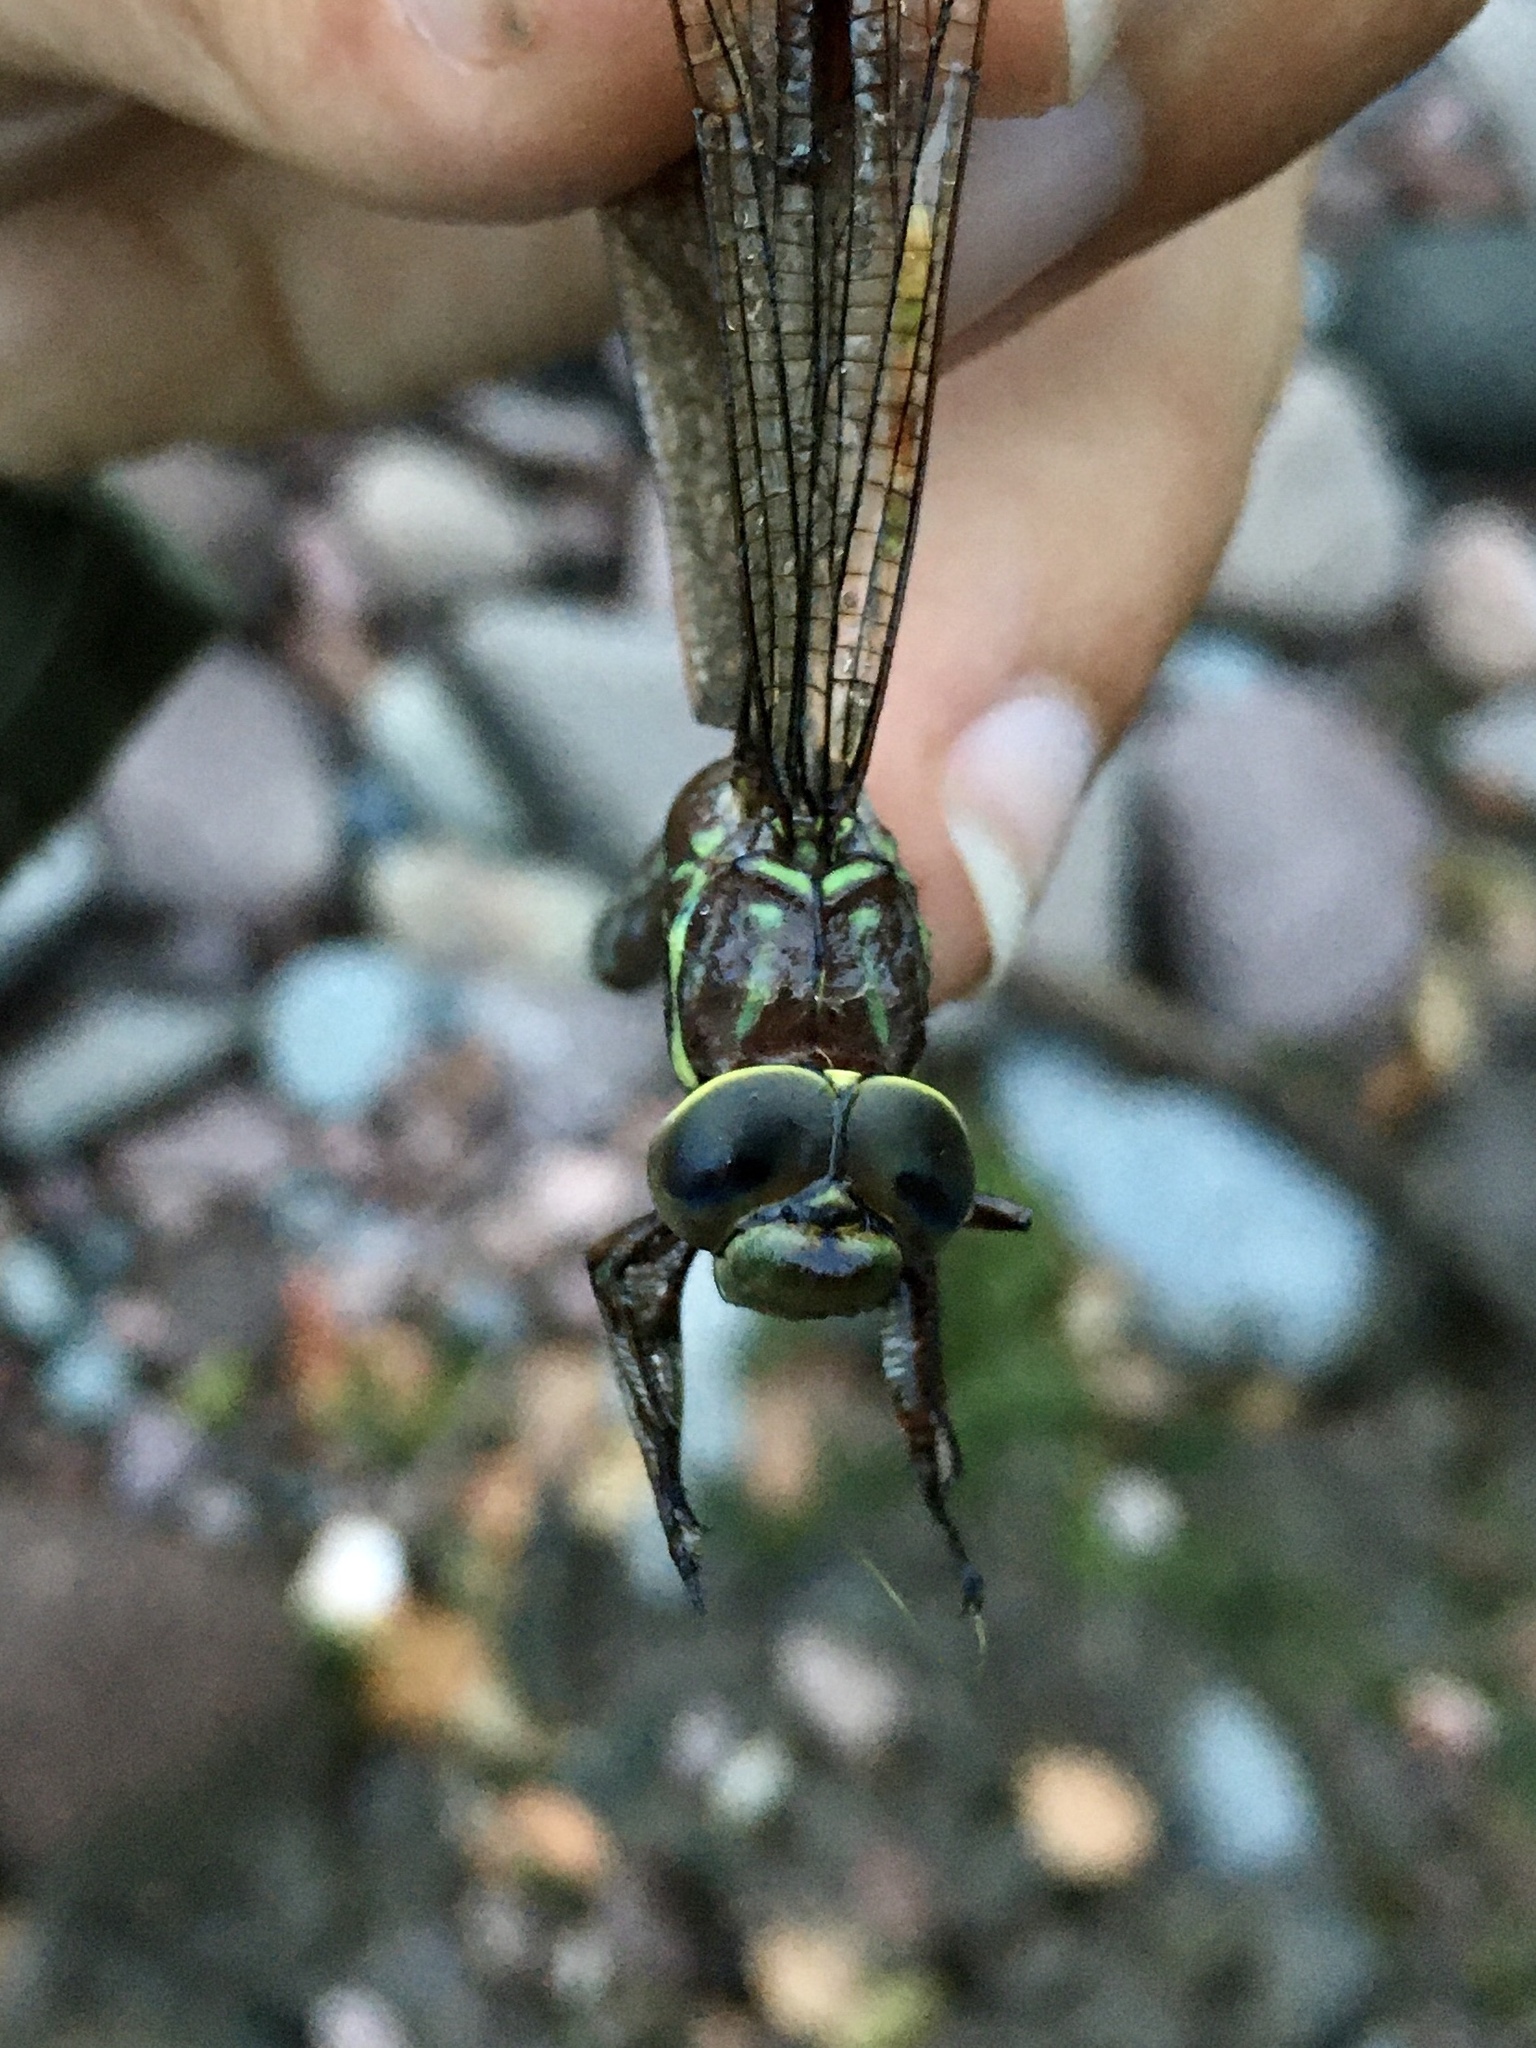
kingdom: Animalia
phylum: Arthropoda
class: Insecta
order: Odonata
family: Aeshnidae
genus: Aeshna
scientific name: Aeshna umbrosa
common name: Shadow darner
